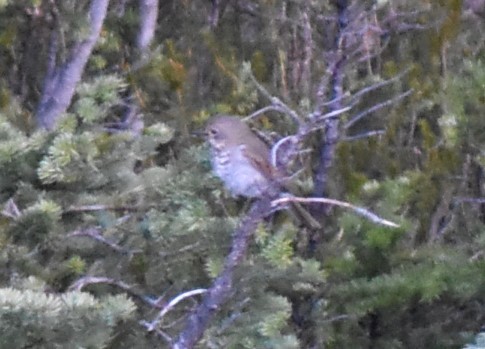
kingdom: Animalia
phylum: Chordata
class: Aves
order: Passeriformes
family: Turdidae
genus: Catharus
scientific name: Catharus guttatus
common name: Hermit thrush
